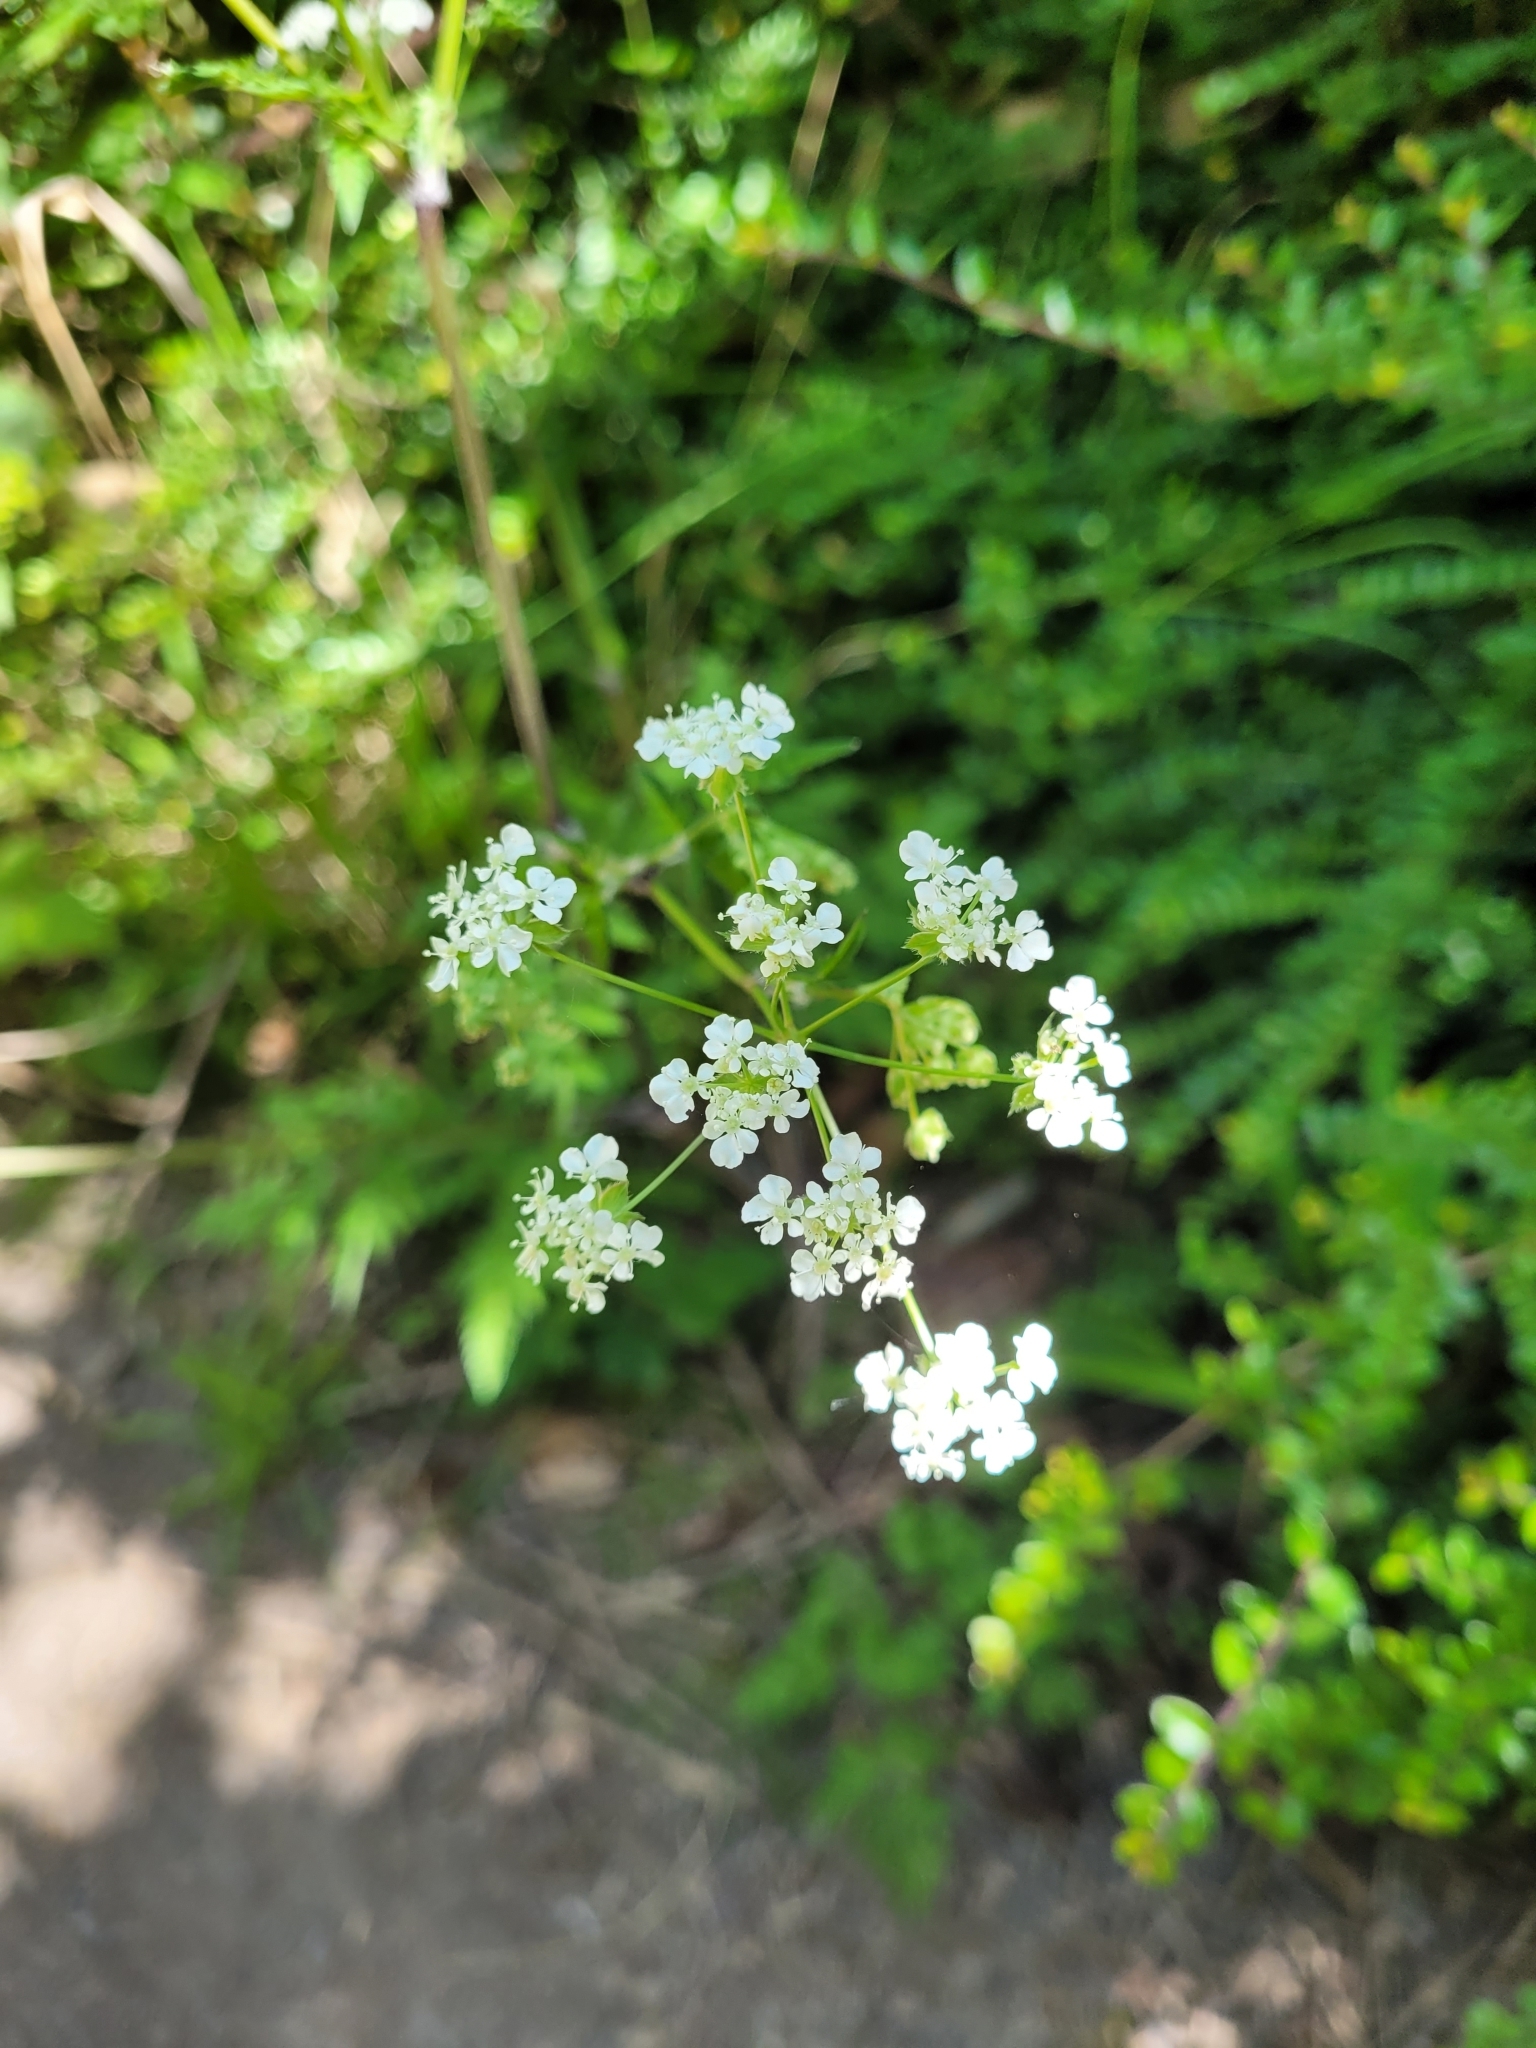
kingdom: Plantae
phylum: Tracheophyta
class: Magnoliopsida
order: Apiales
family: Apiaceae
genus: Anthriscus
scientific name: Anthriscus sylvestris
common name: Cow parsley
